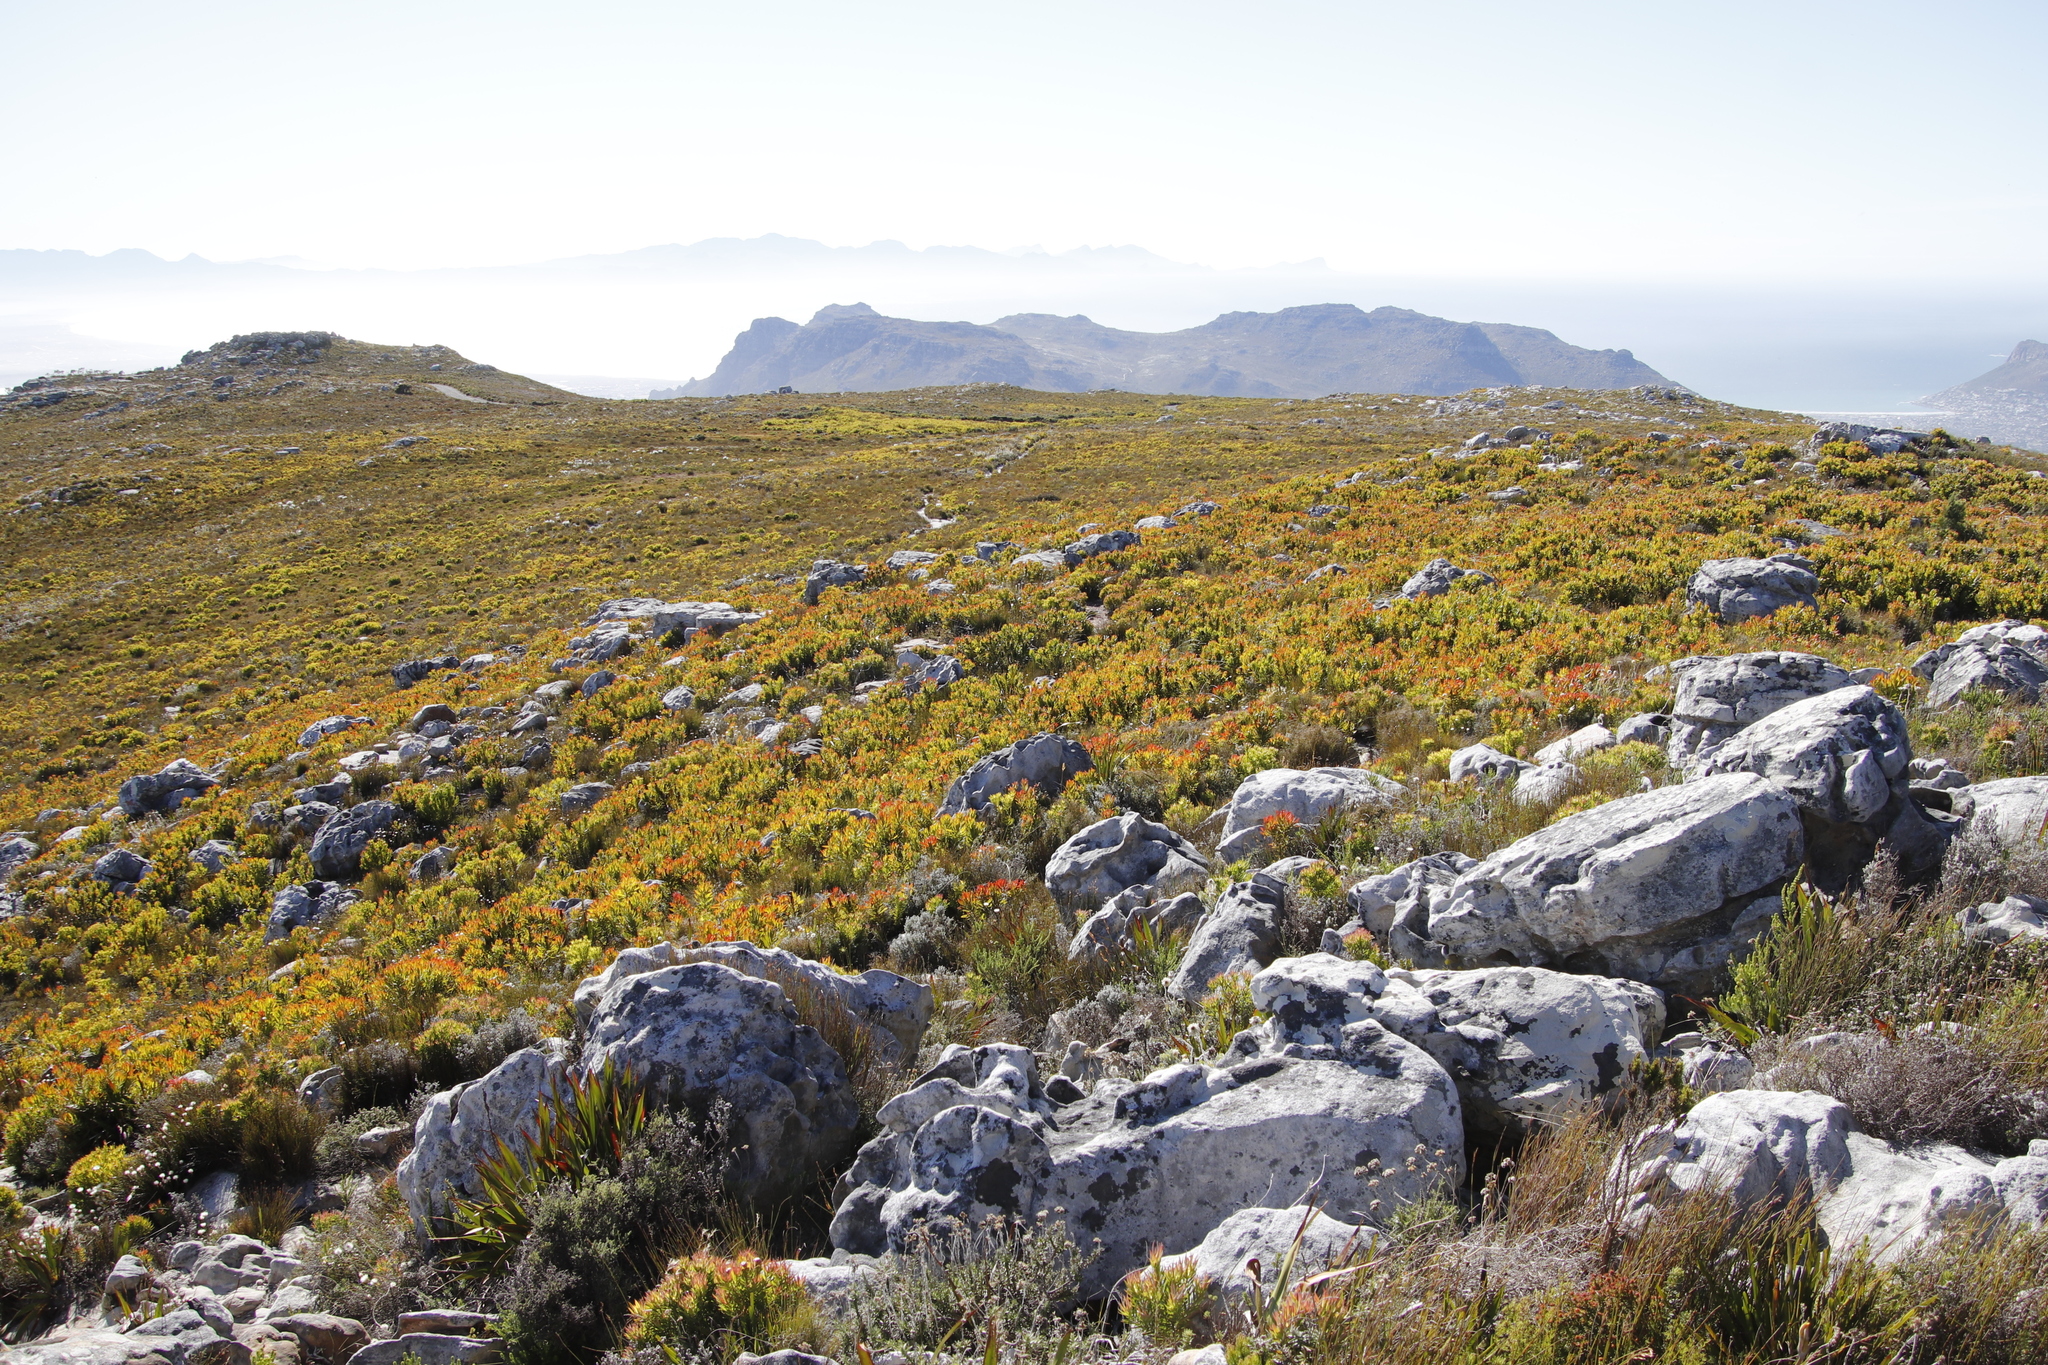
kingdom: Plantae
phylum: Tracheophyta
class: Magnoliopsida
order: Proteales
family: Proteaceae
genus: Protea
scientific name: Protea lepidocarpodendron
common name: Black-bearded protea
